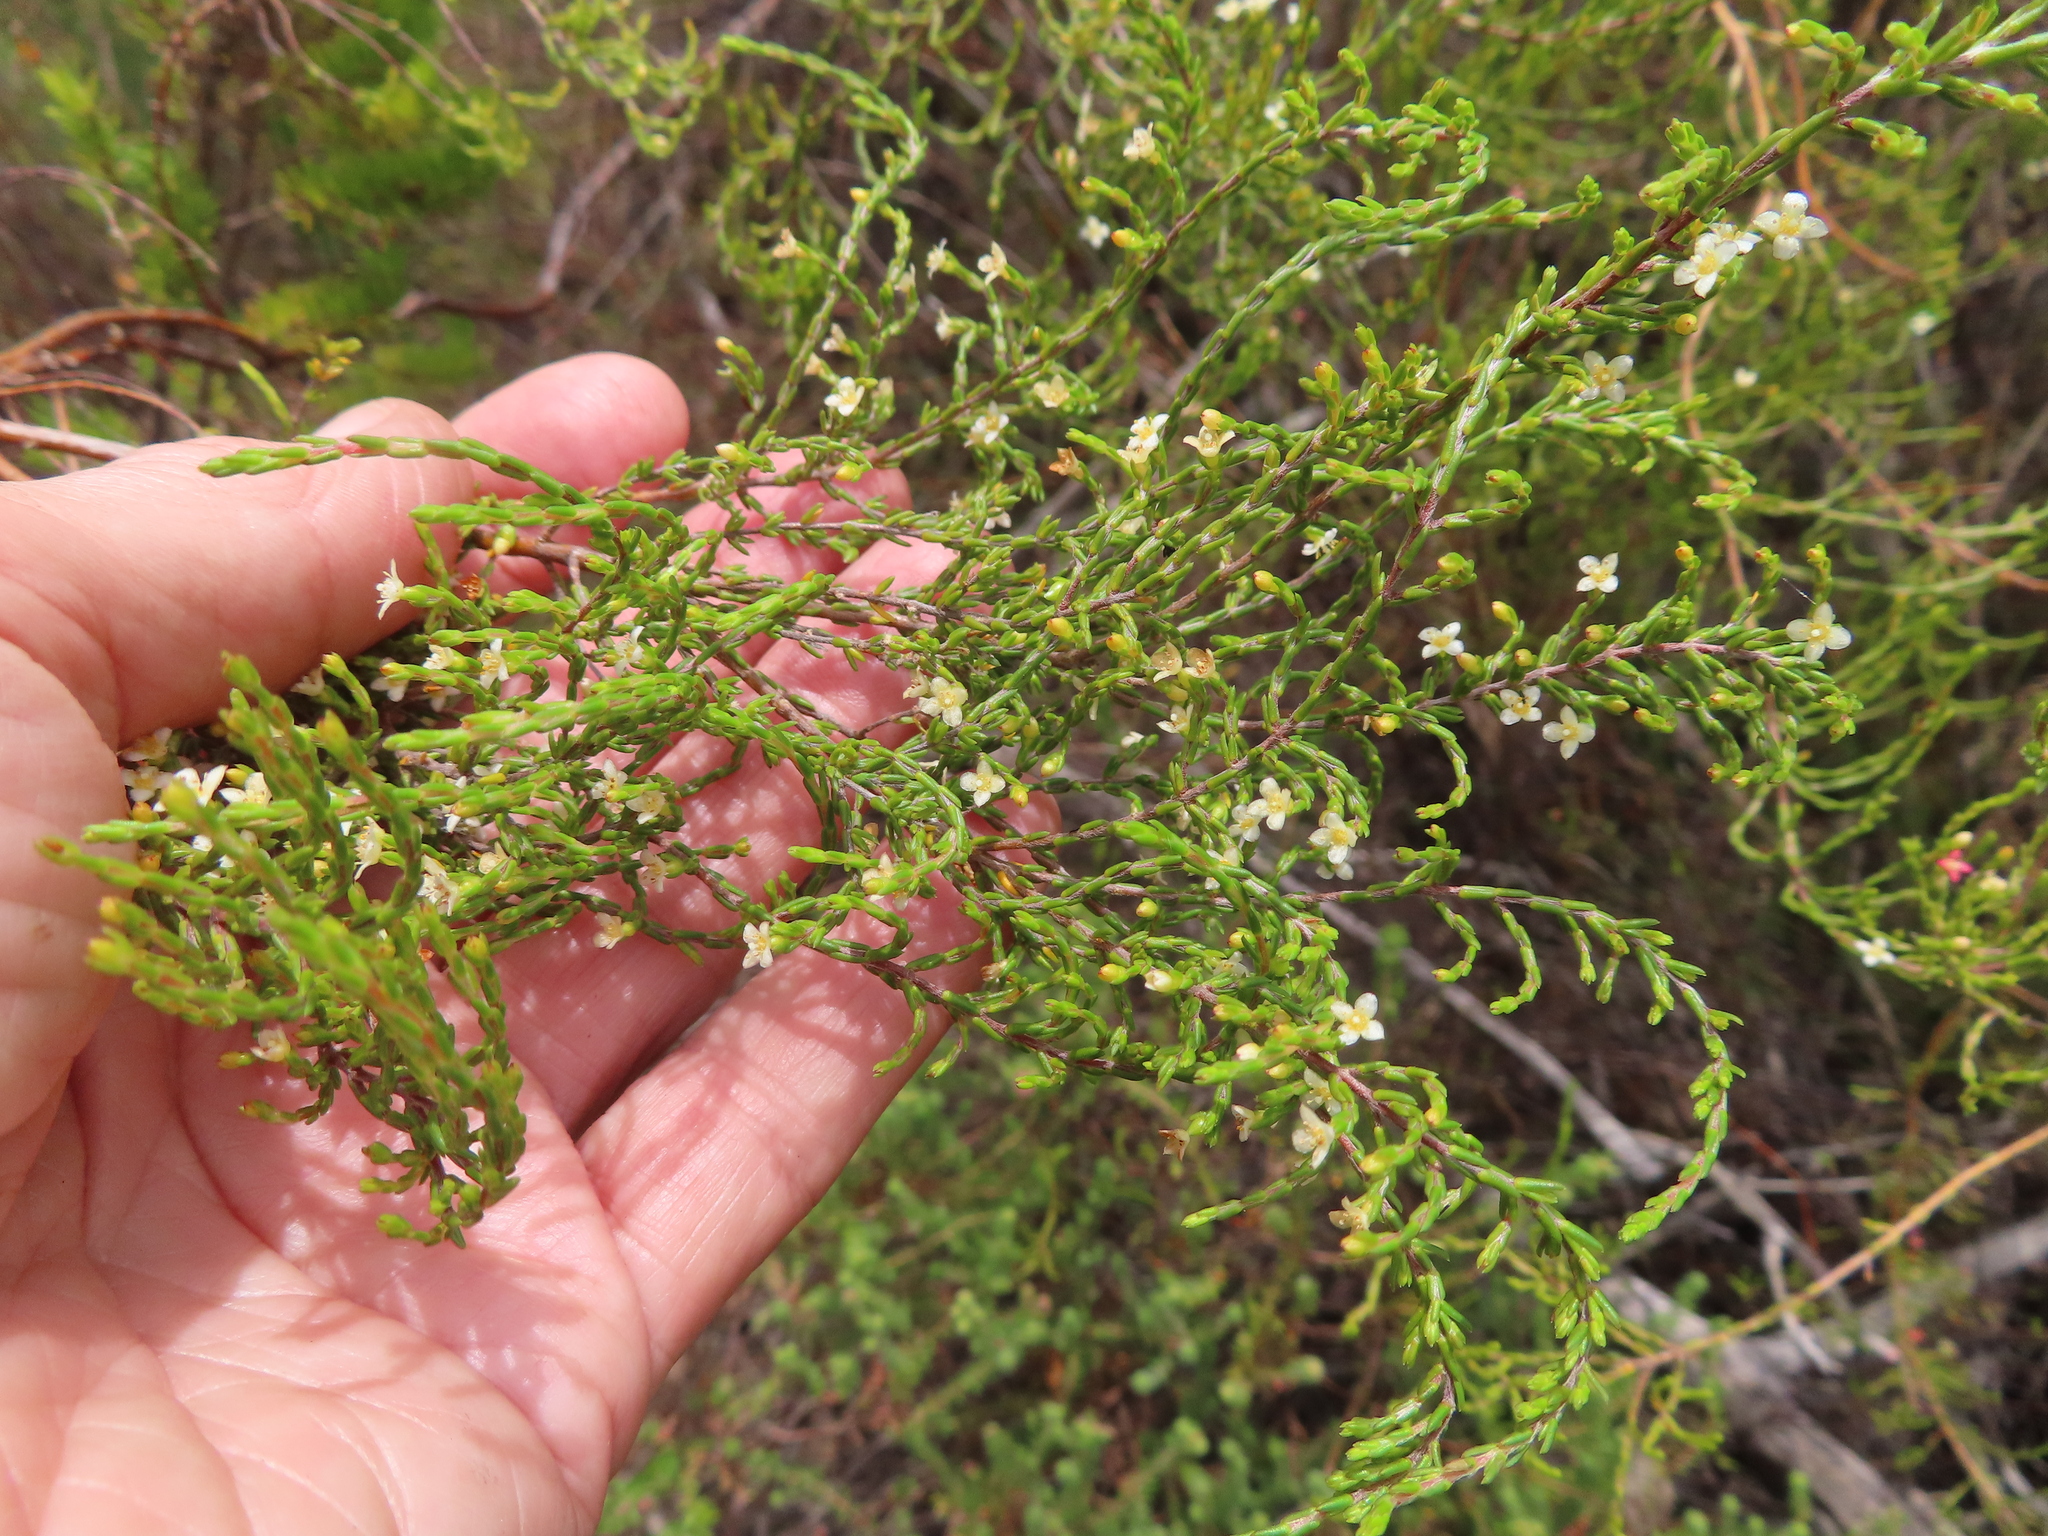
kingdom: Plantae
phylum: Tracheophyta
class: Magnoliopsida
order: Malvales
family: Thymelaeaceae
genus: Lachnaea
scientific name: Lachnaea axillaris
